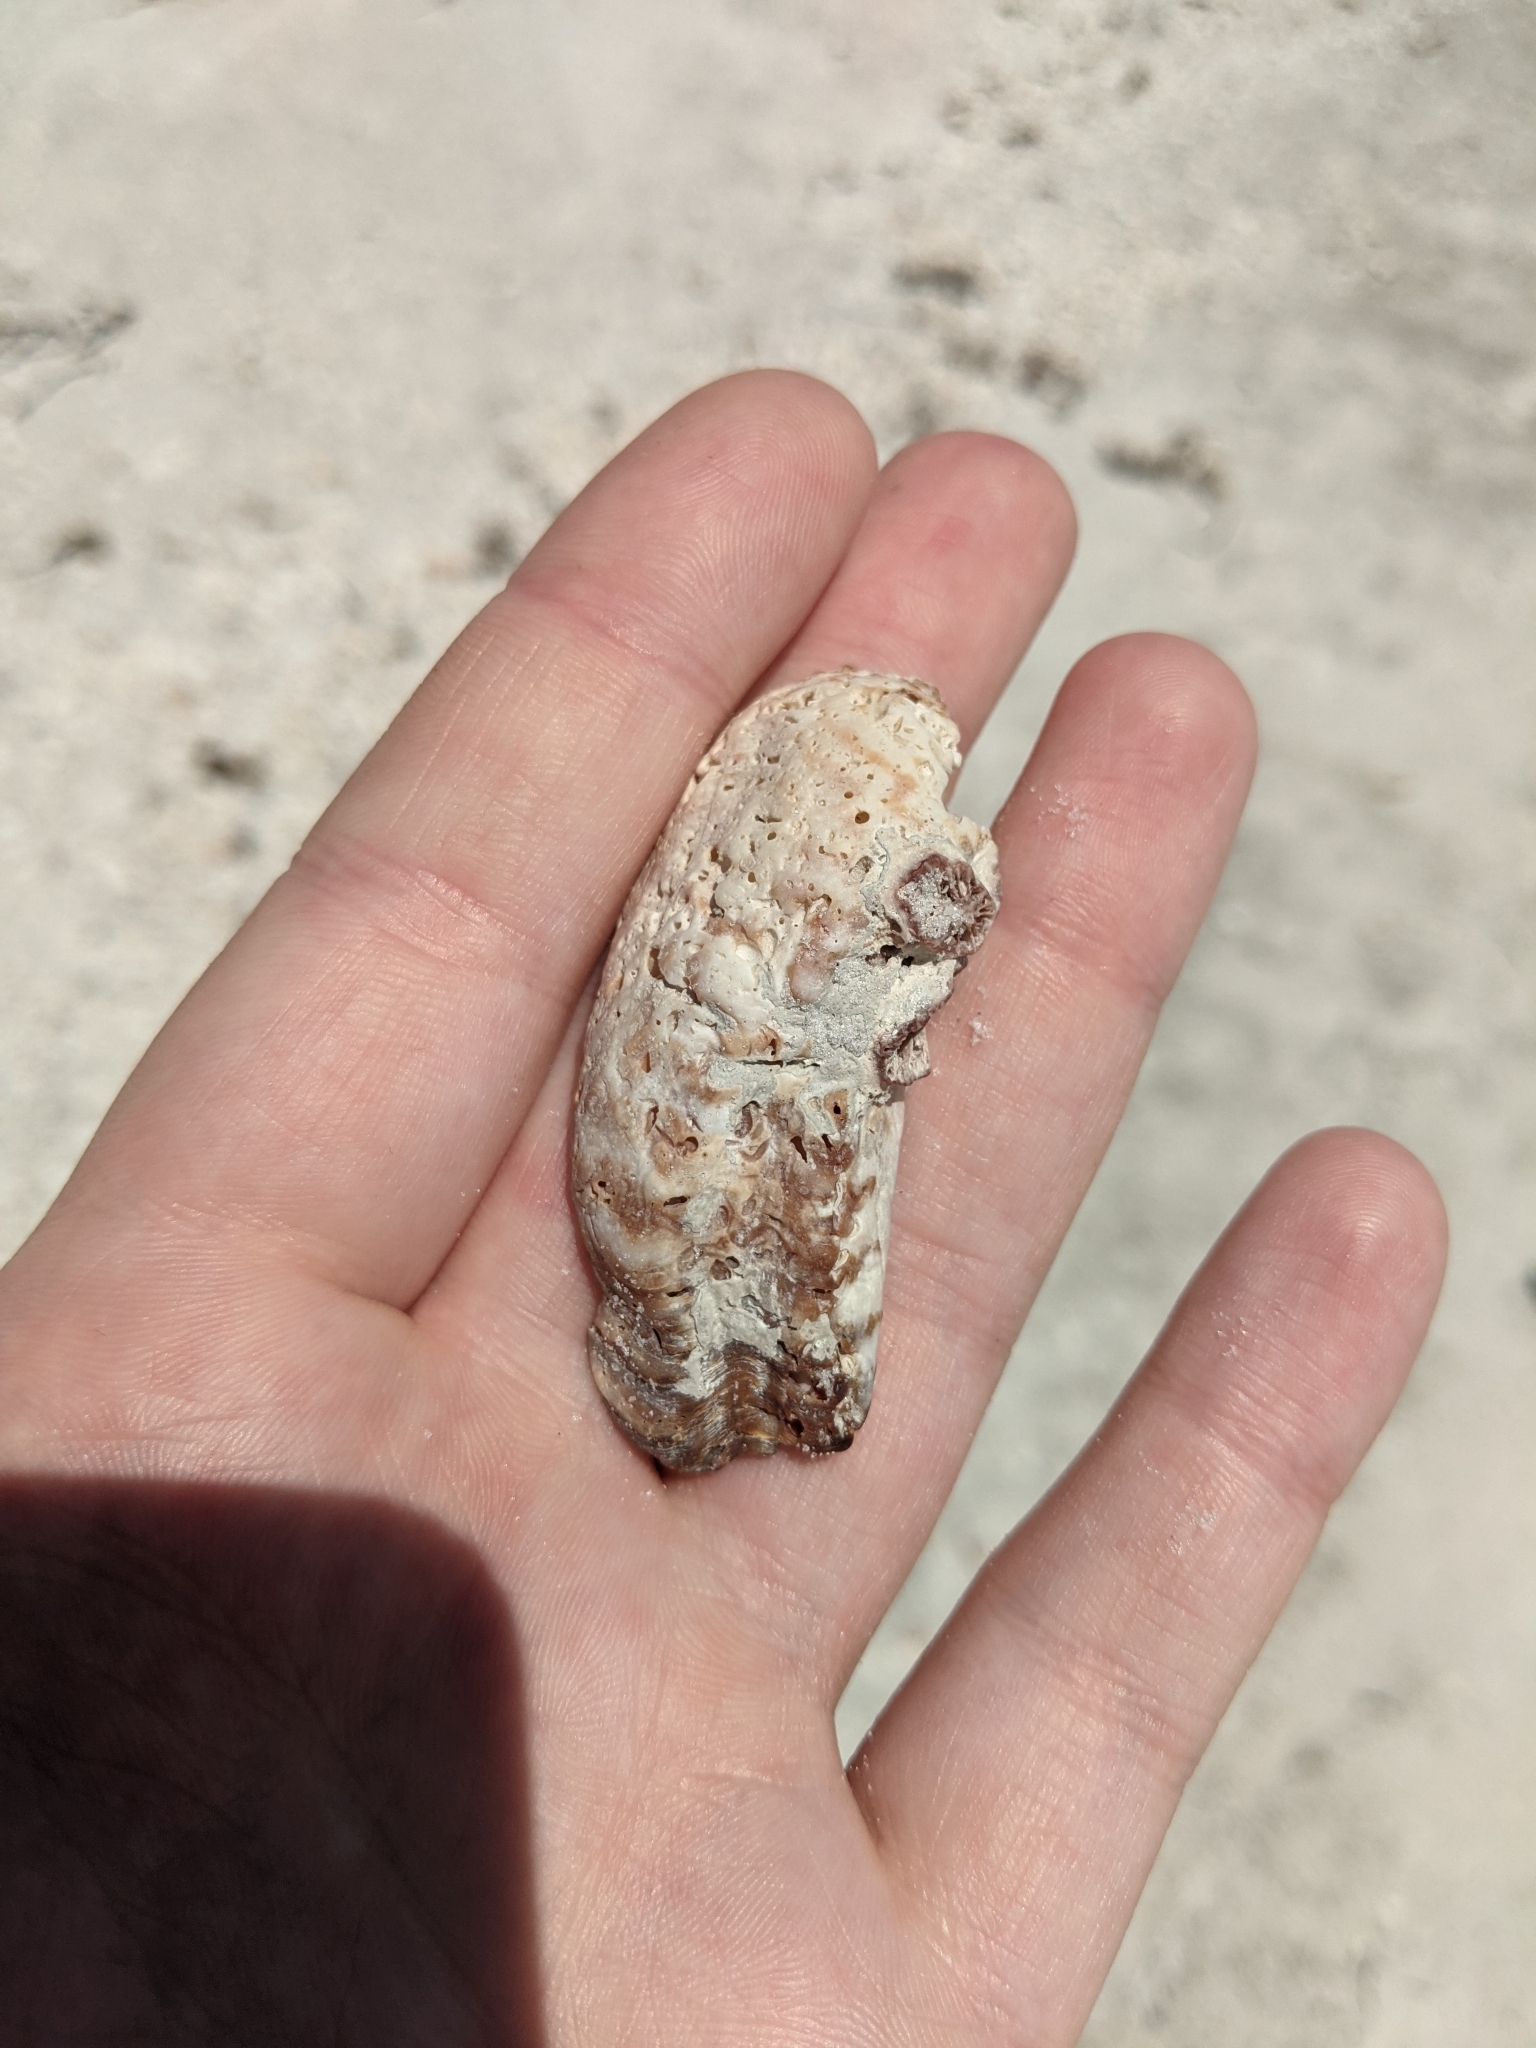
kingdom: Animalia
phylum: Mollusca
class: Bivalvia
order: Arcida
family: Arcidae
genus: Arca
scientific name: Arca zebra
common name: Atlantic turkey wing
